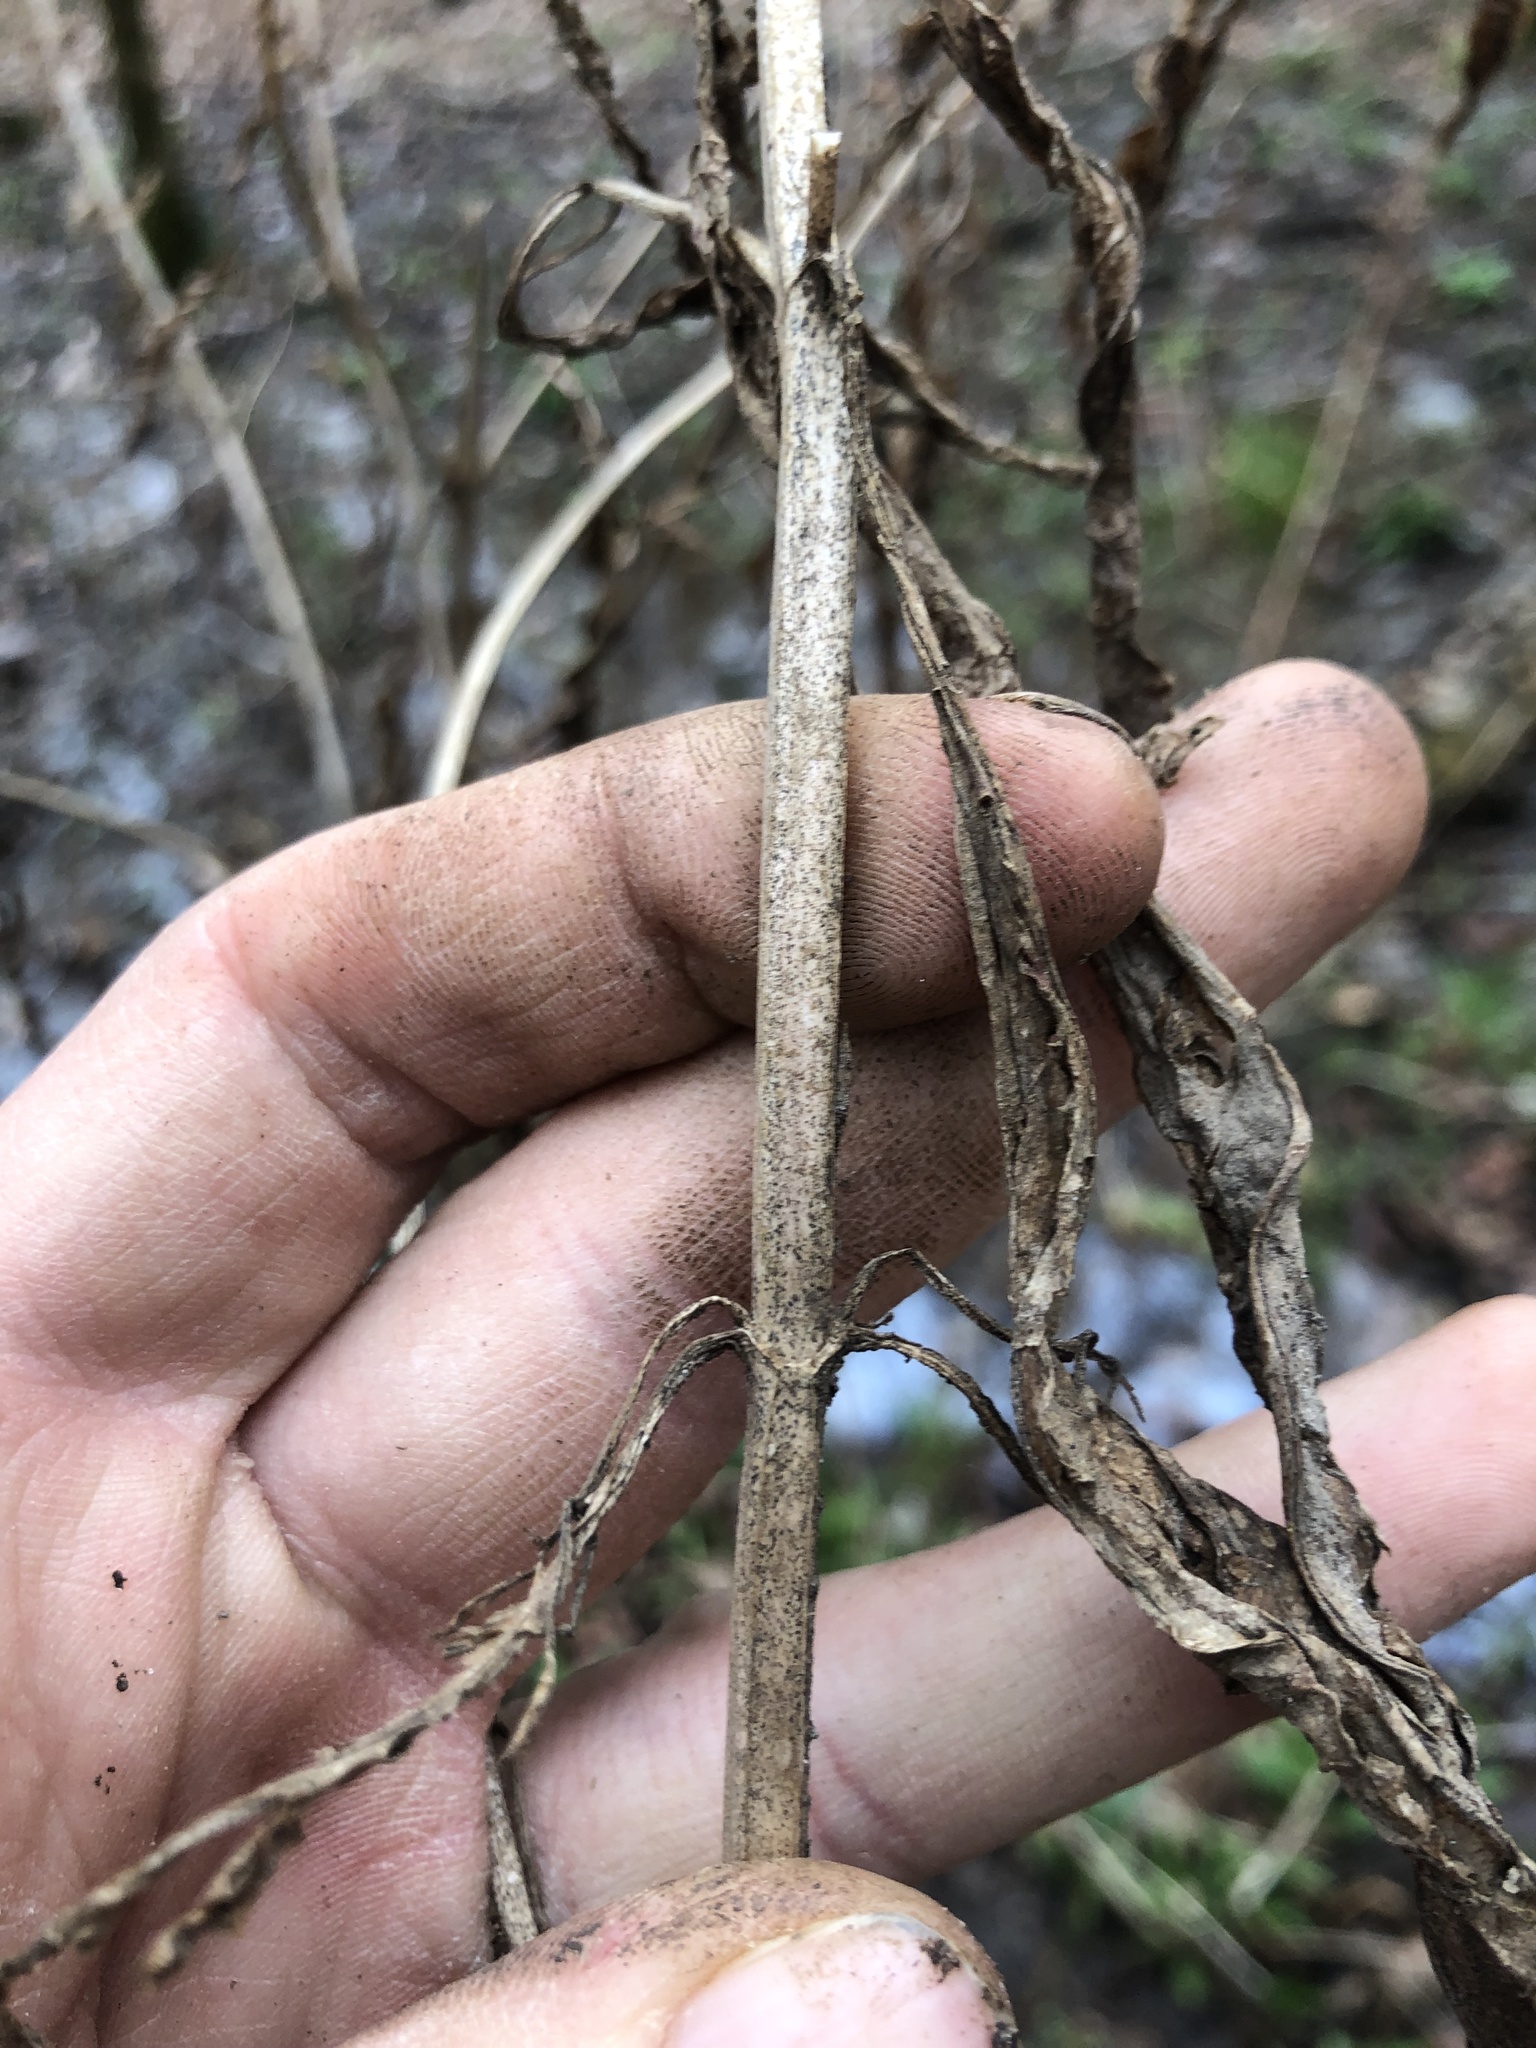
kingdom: Plantae
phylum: Tracheophyta
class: Magnoliopsida
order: Lamiales
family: Phrymaceae
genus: Mimulus
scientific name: Mimulus alatus
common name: Sharp-wing monkey-flower
